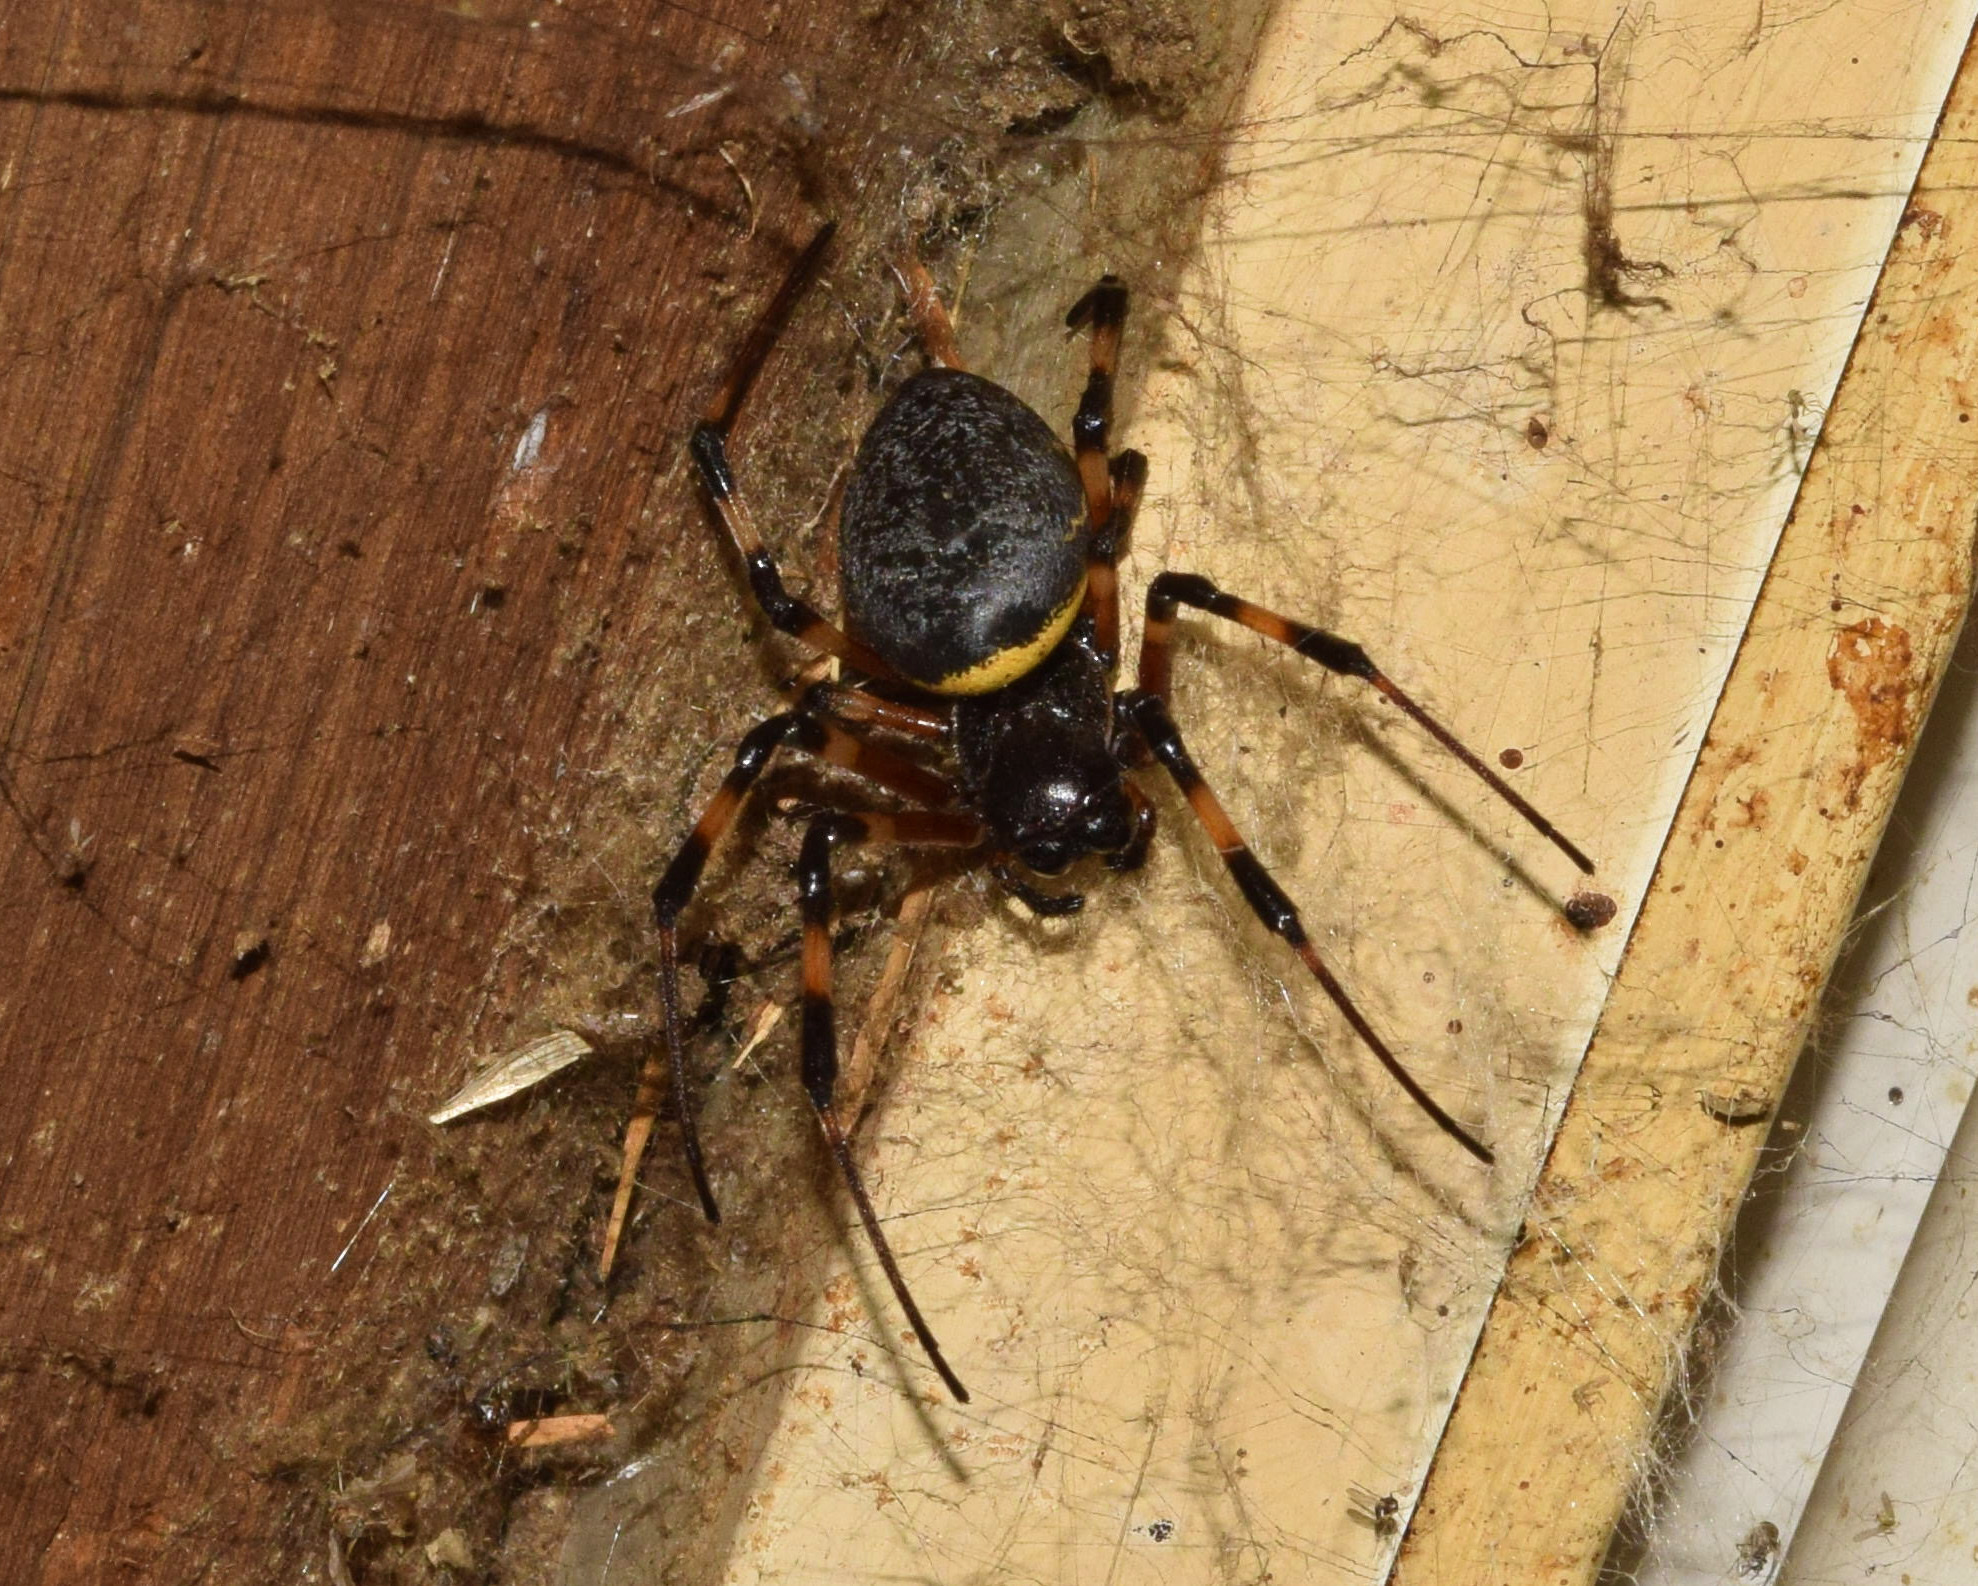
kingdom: Animalia
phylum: Arthropoda
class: Arachnida
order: Araneae
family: Araneidae
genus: Nephilingis
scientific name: Nephilingis cruentata
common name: African hermit spider
